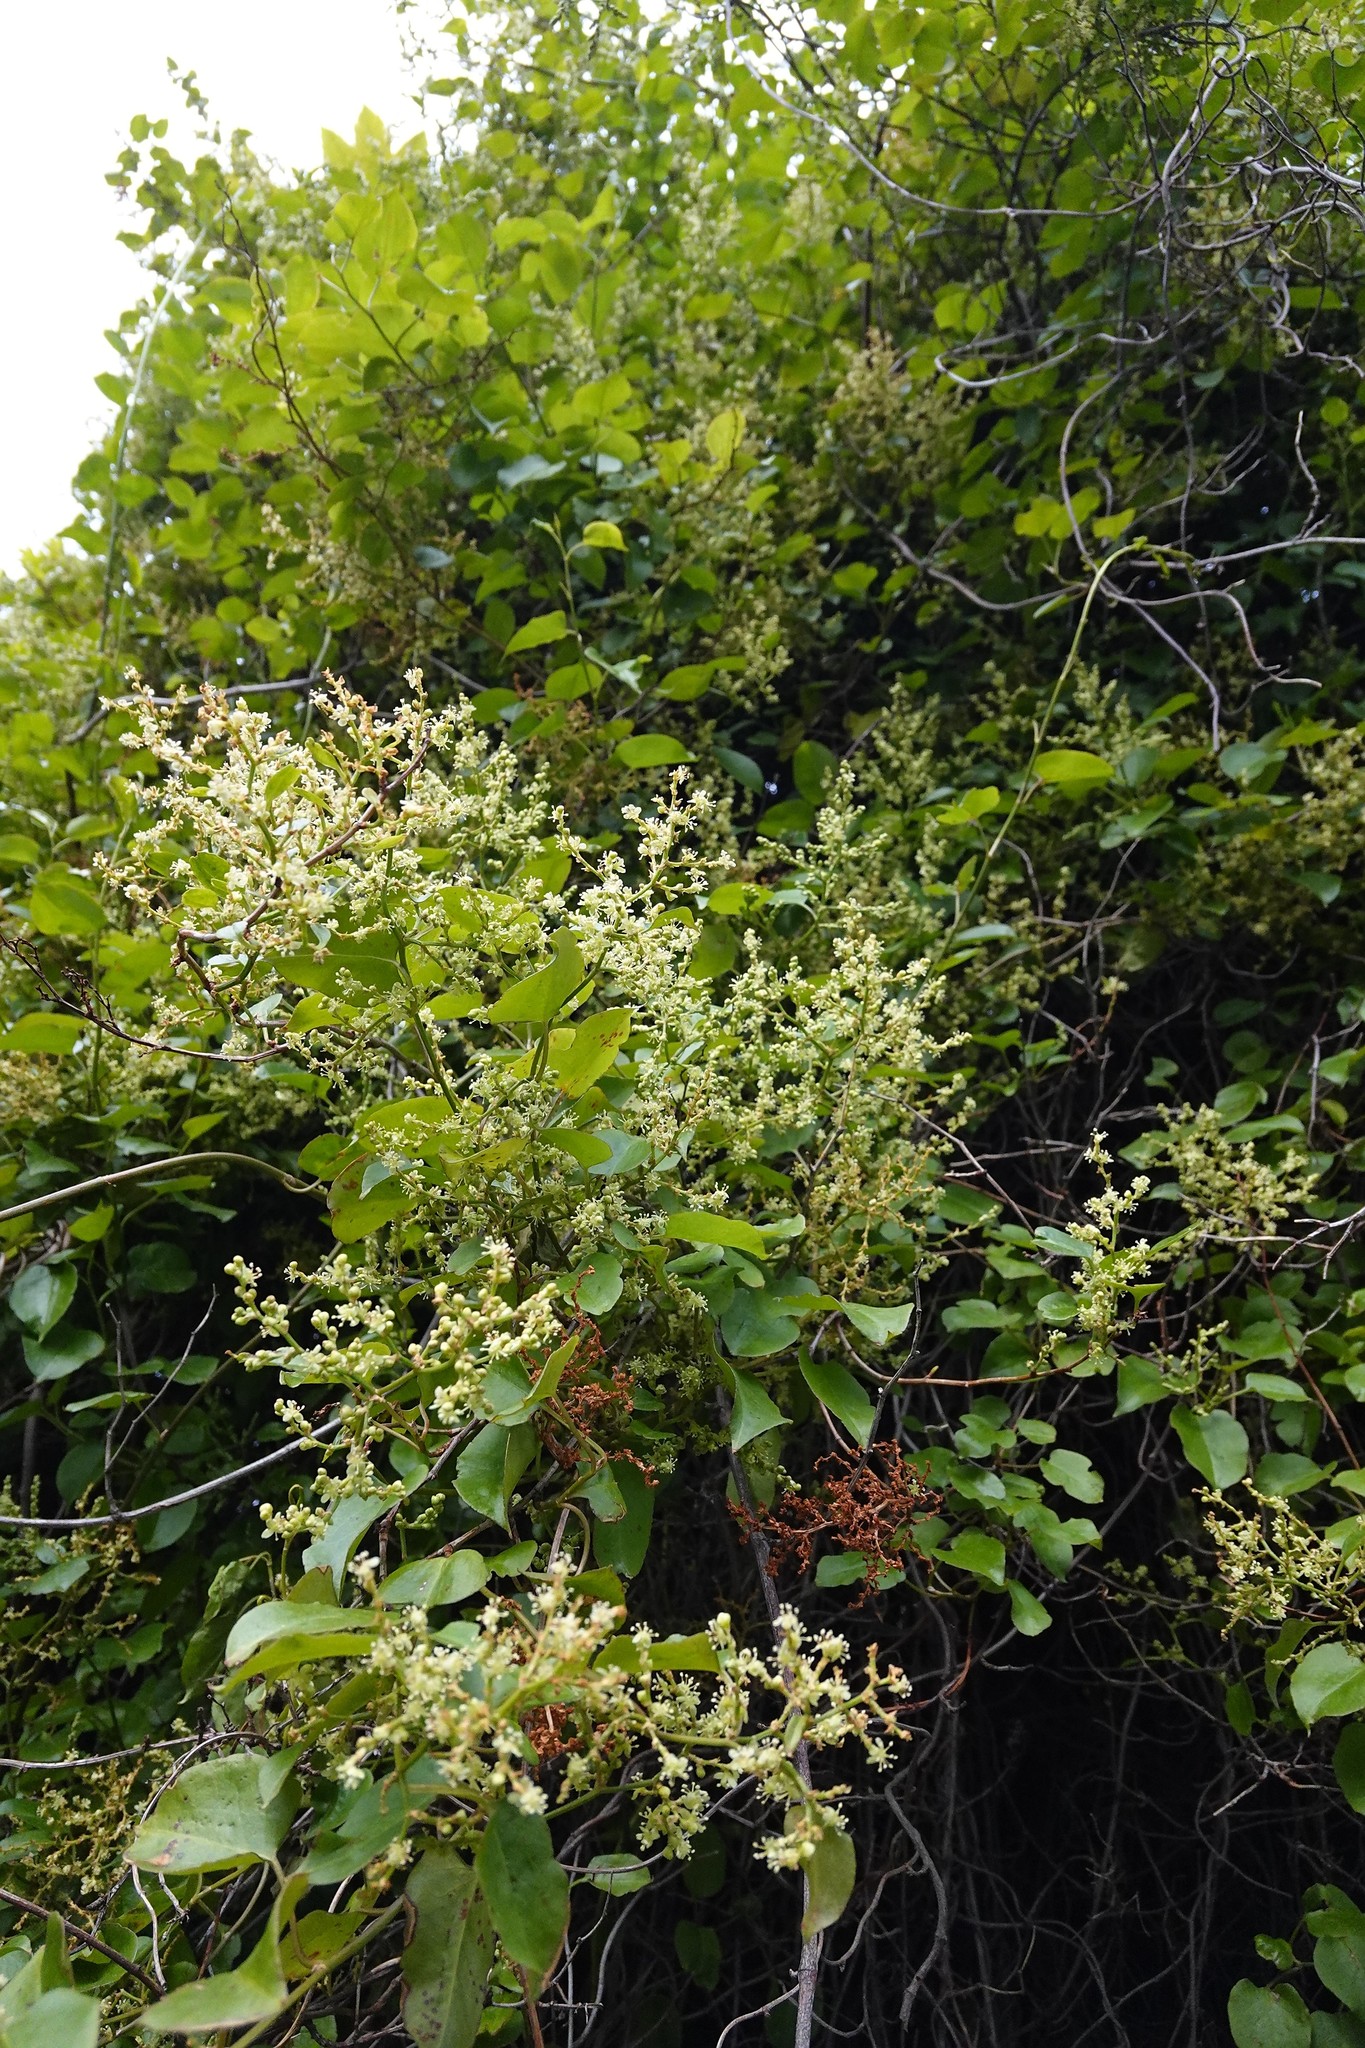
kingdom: Plantae
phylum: Tracheophyta
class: Magnoliopsida
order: Caryophyllales
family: Polygonaceae
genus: Muehlenbeckia
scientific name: Muehlenbeckia australis
